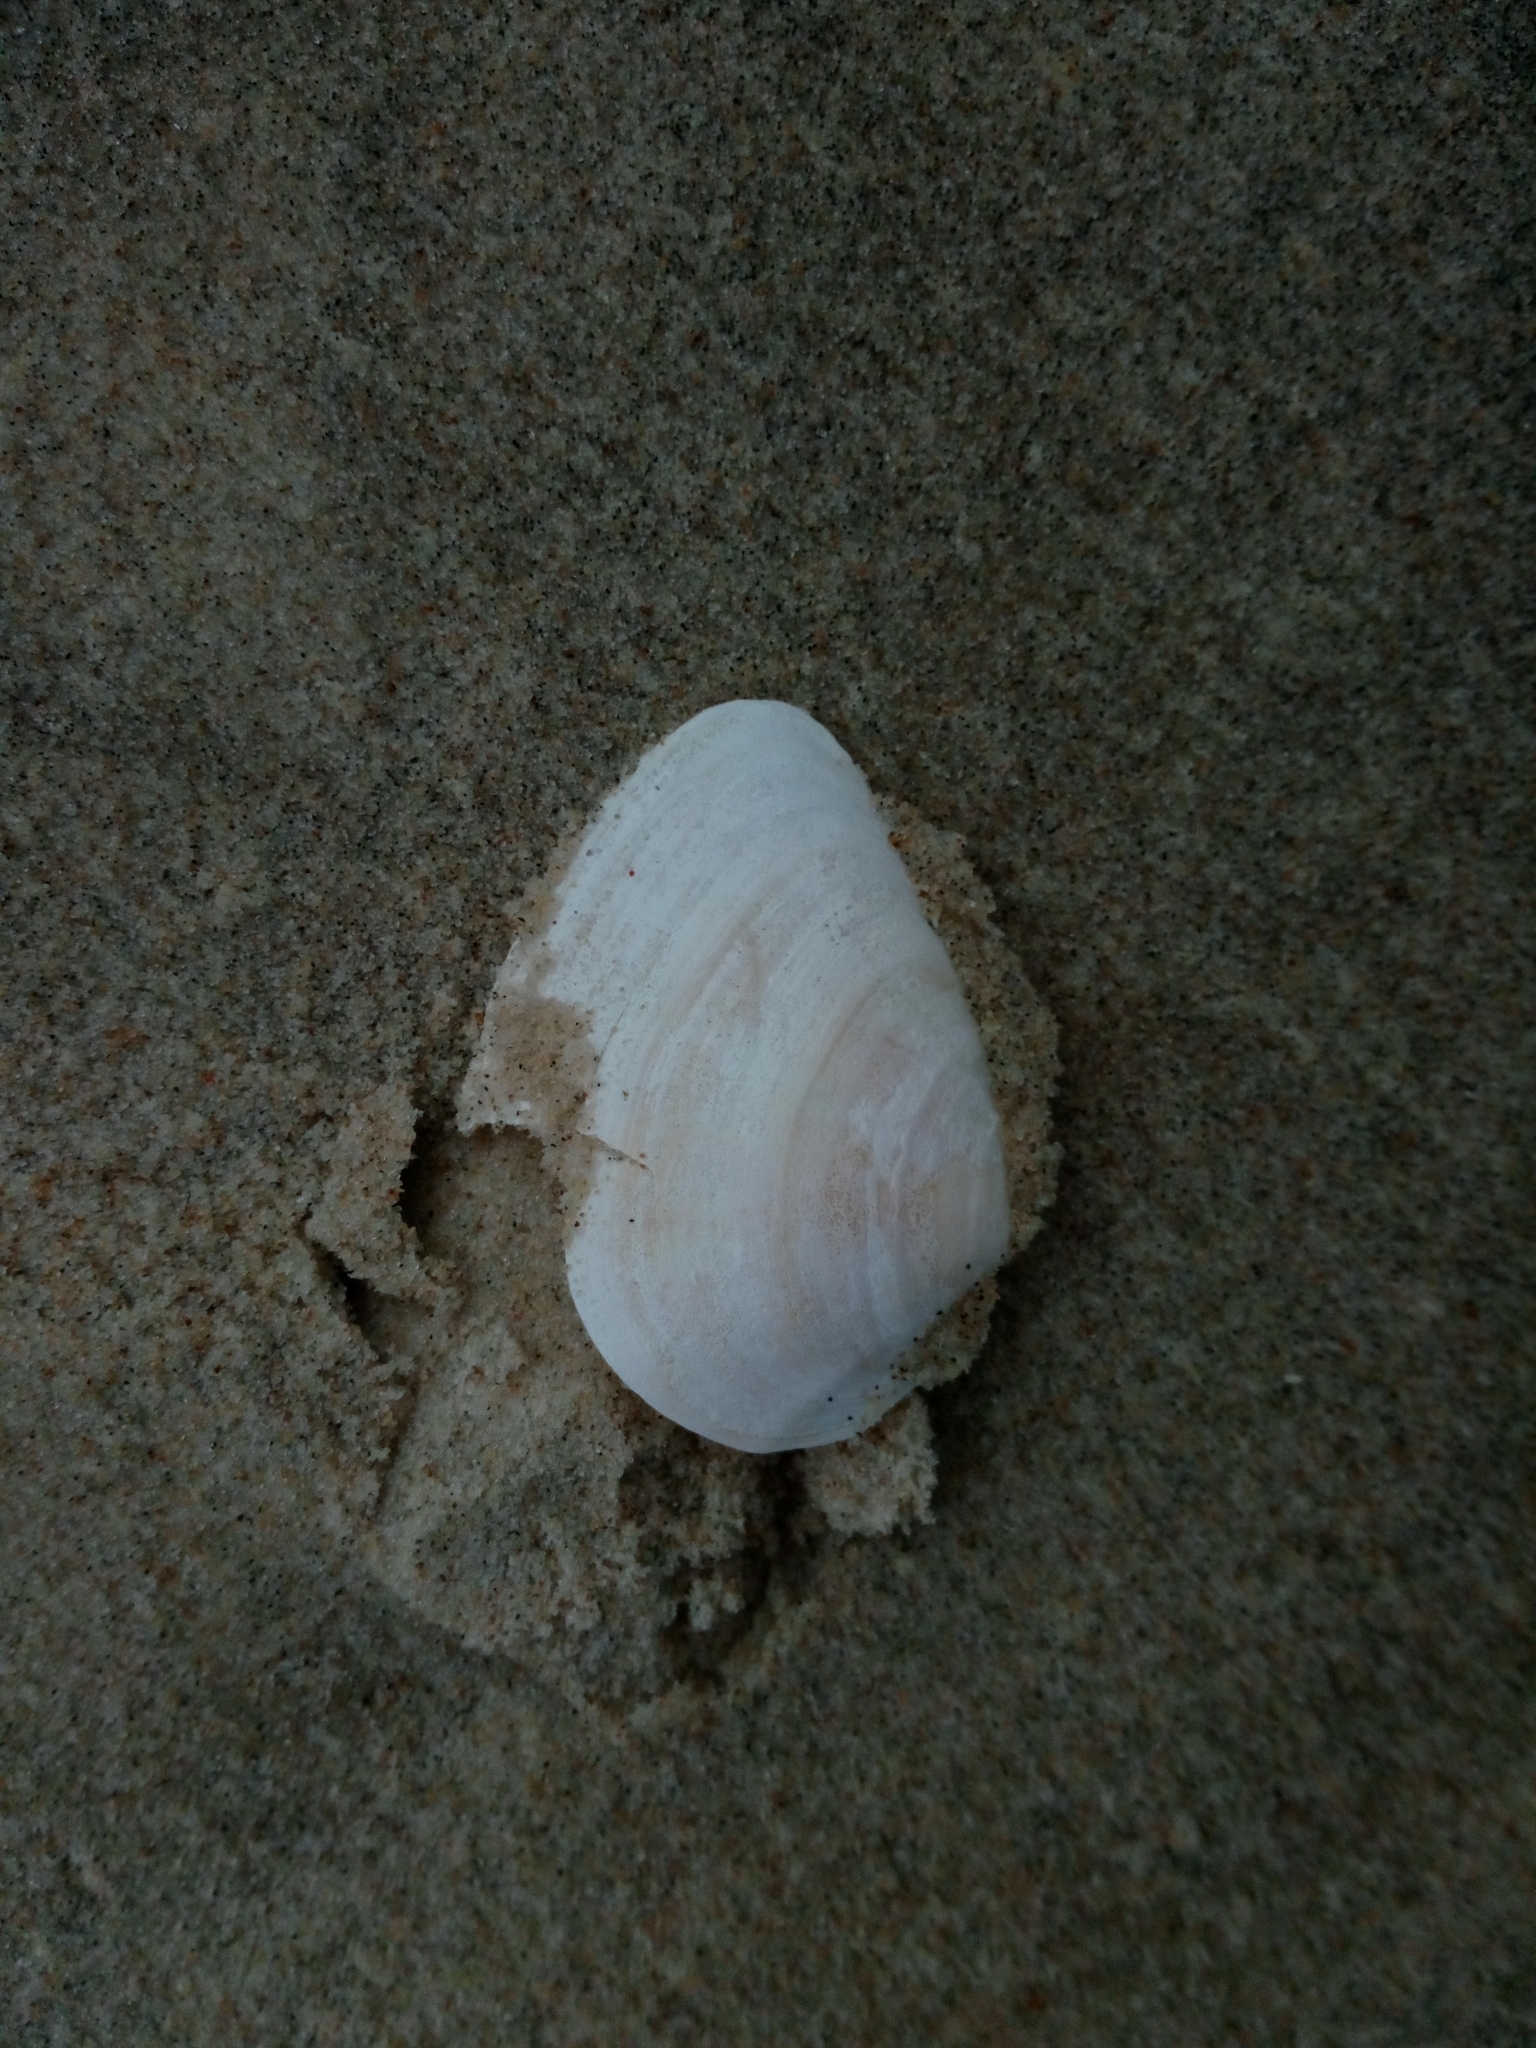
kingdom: Animalia
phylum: Mollusca
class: Bivalvia
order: Myida
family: Myidae
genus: Mya
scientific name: Mya arenaria
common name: Soft-shelled clam
